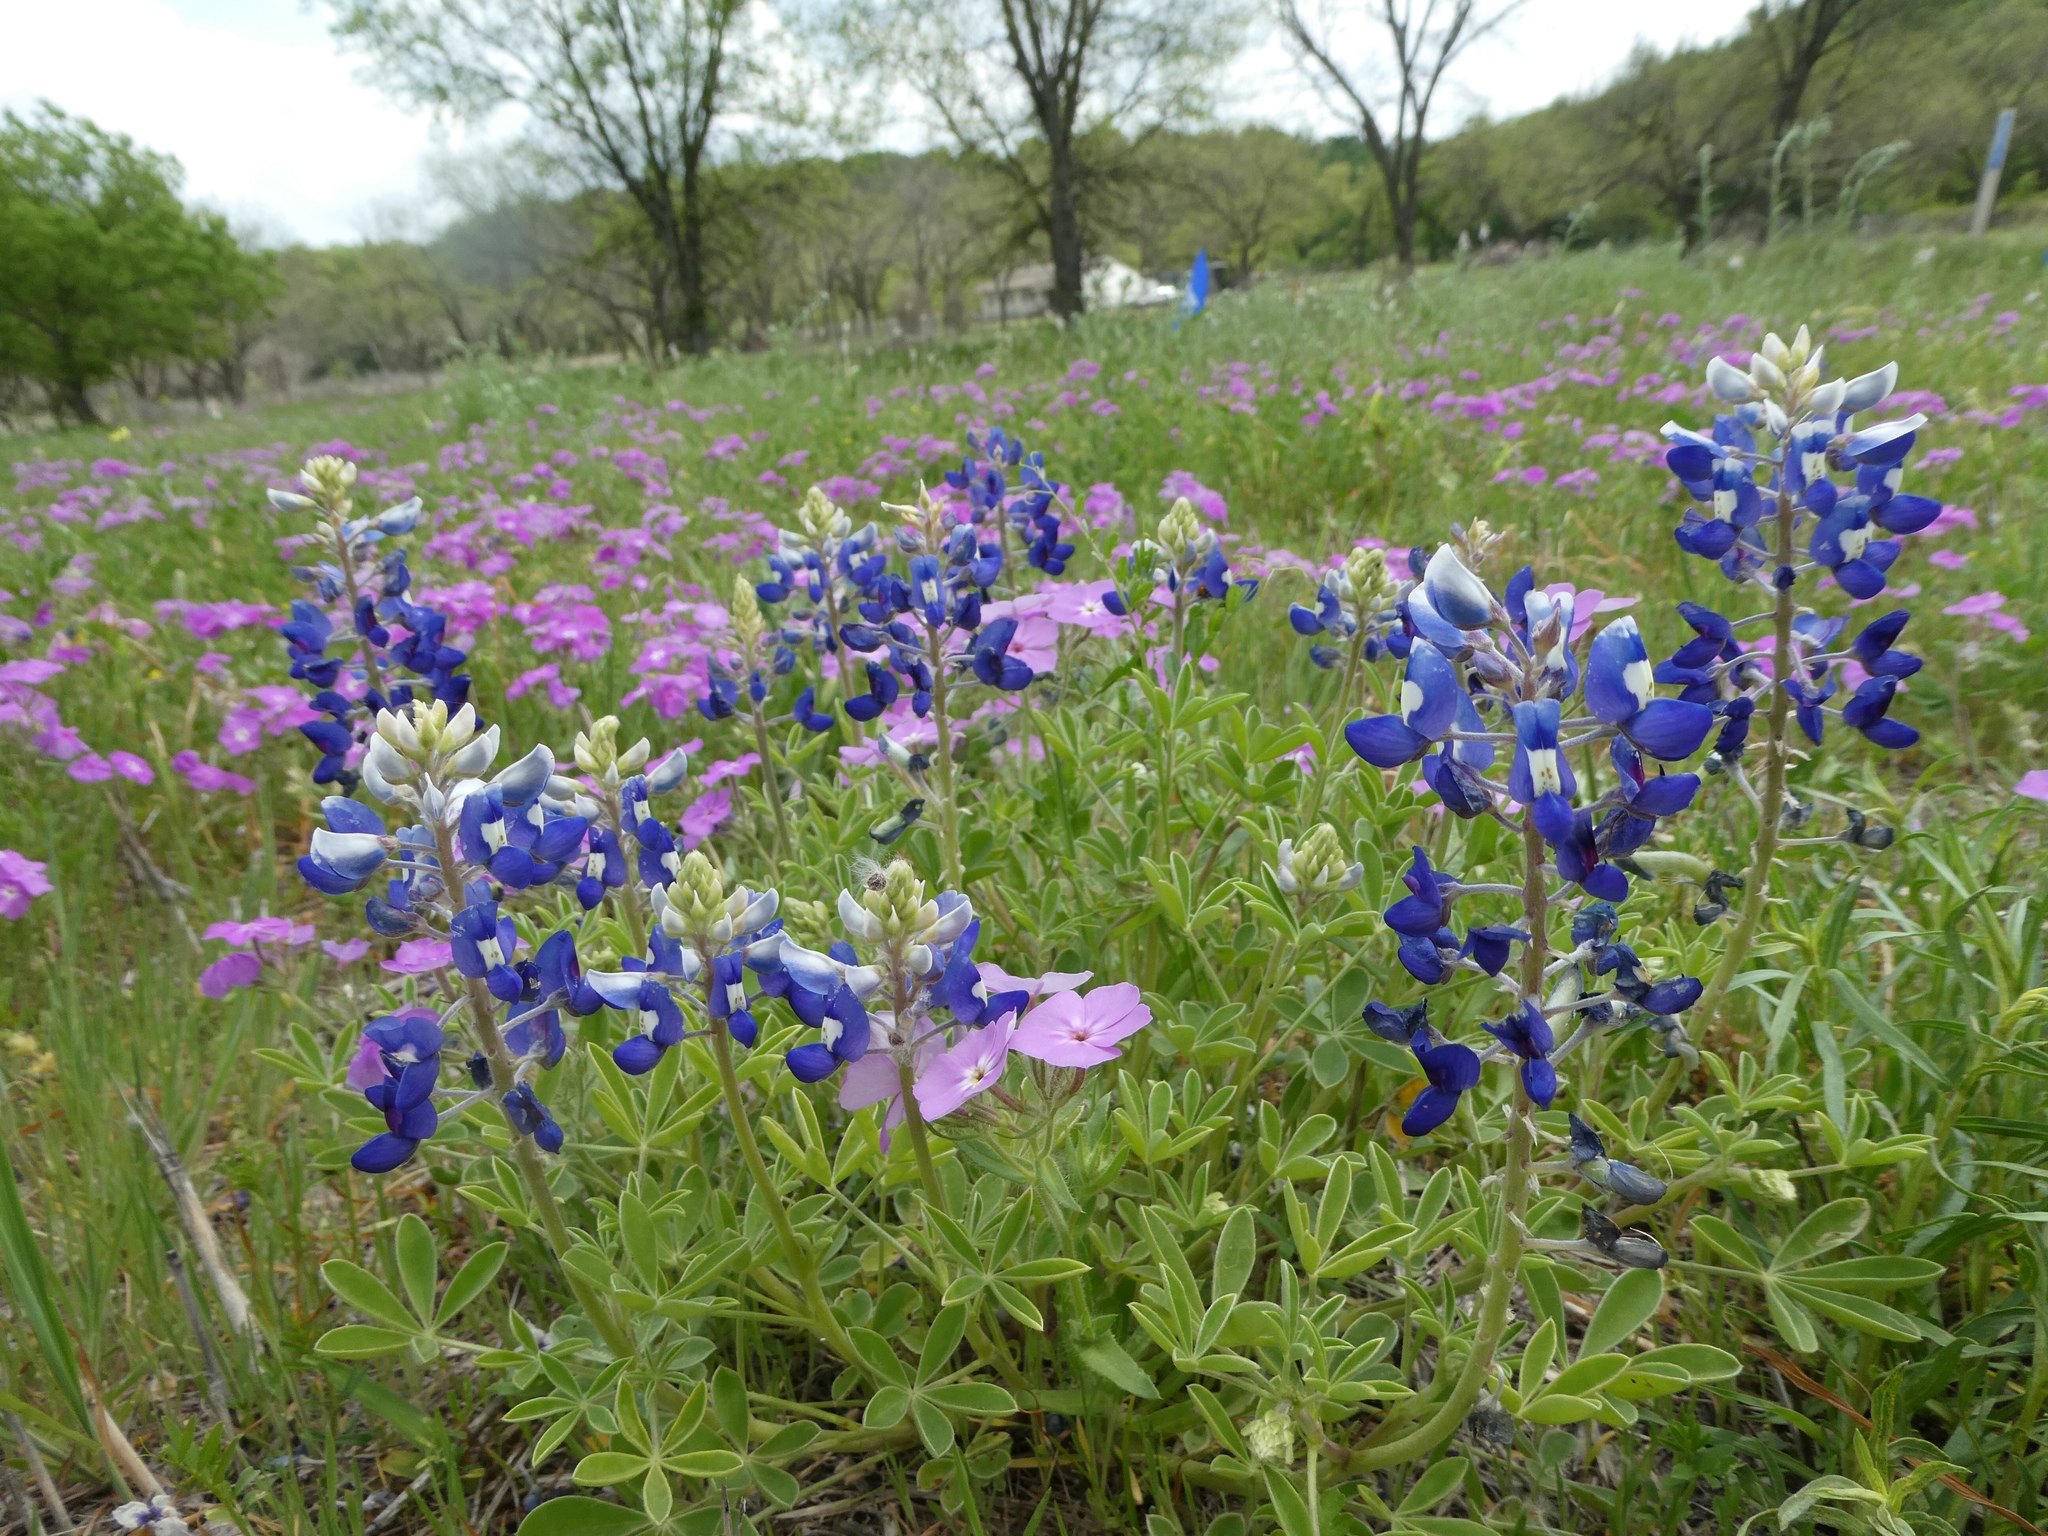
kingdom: Plantae
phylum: Tracheophyta
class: Magnoliopsida
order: Ericales
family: Polemoniaceae
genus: Phlox
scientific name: Phlox drummondii
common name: Drummond's phlox
